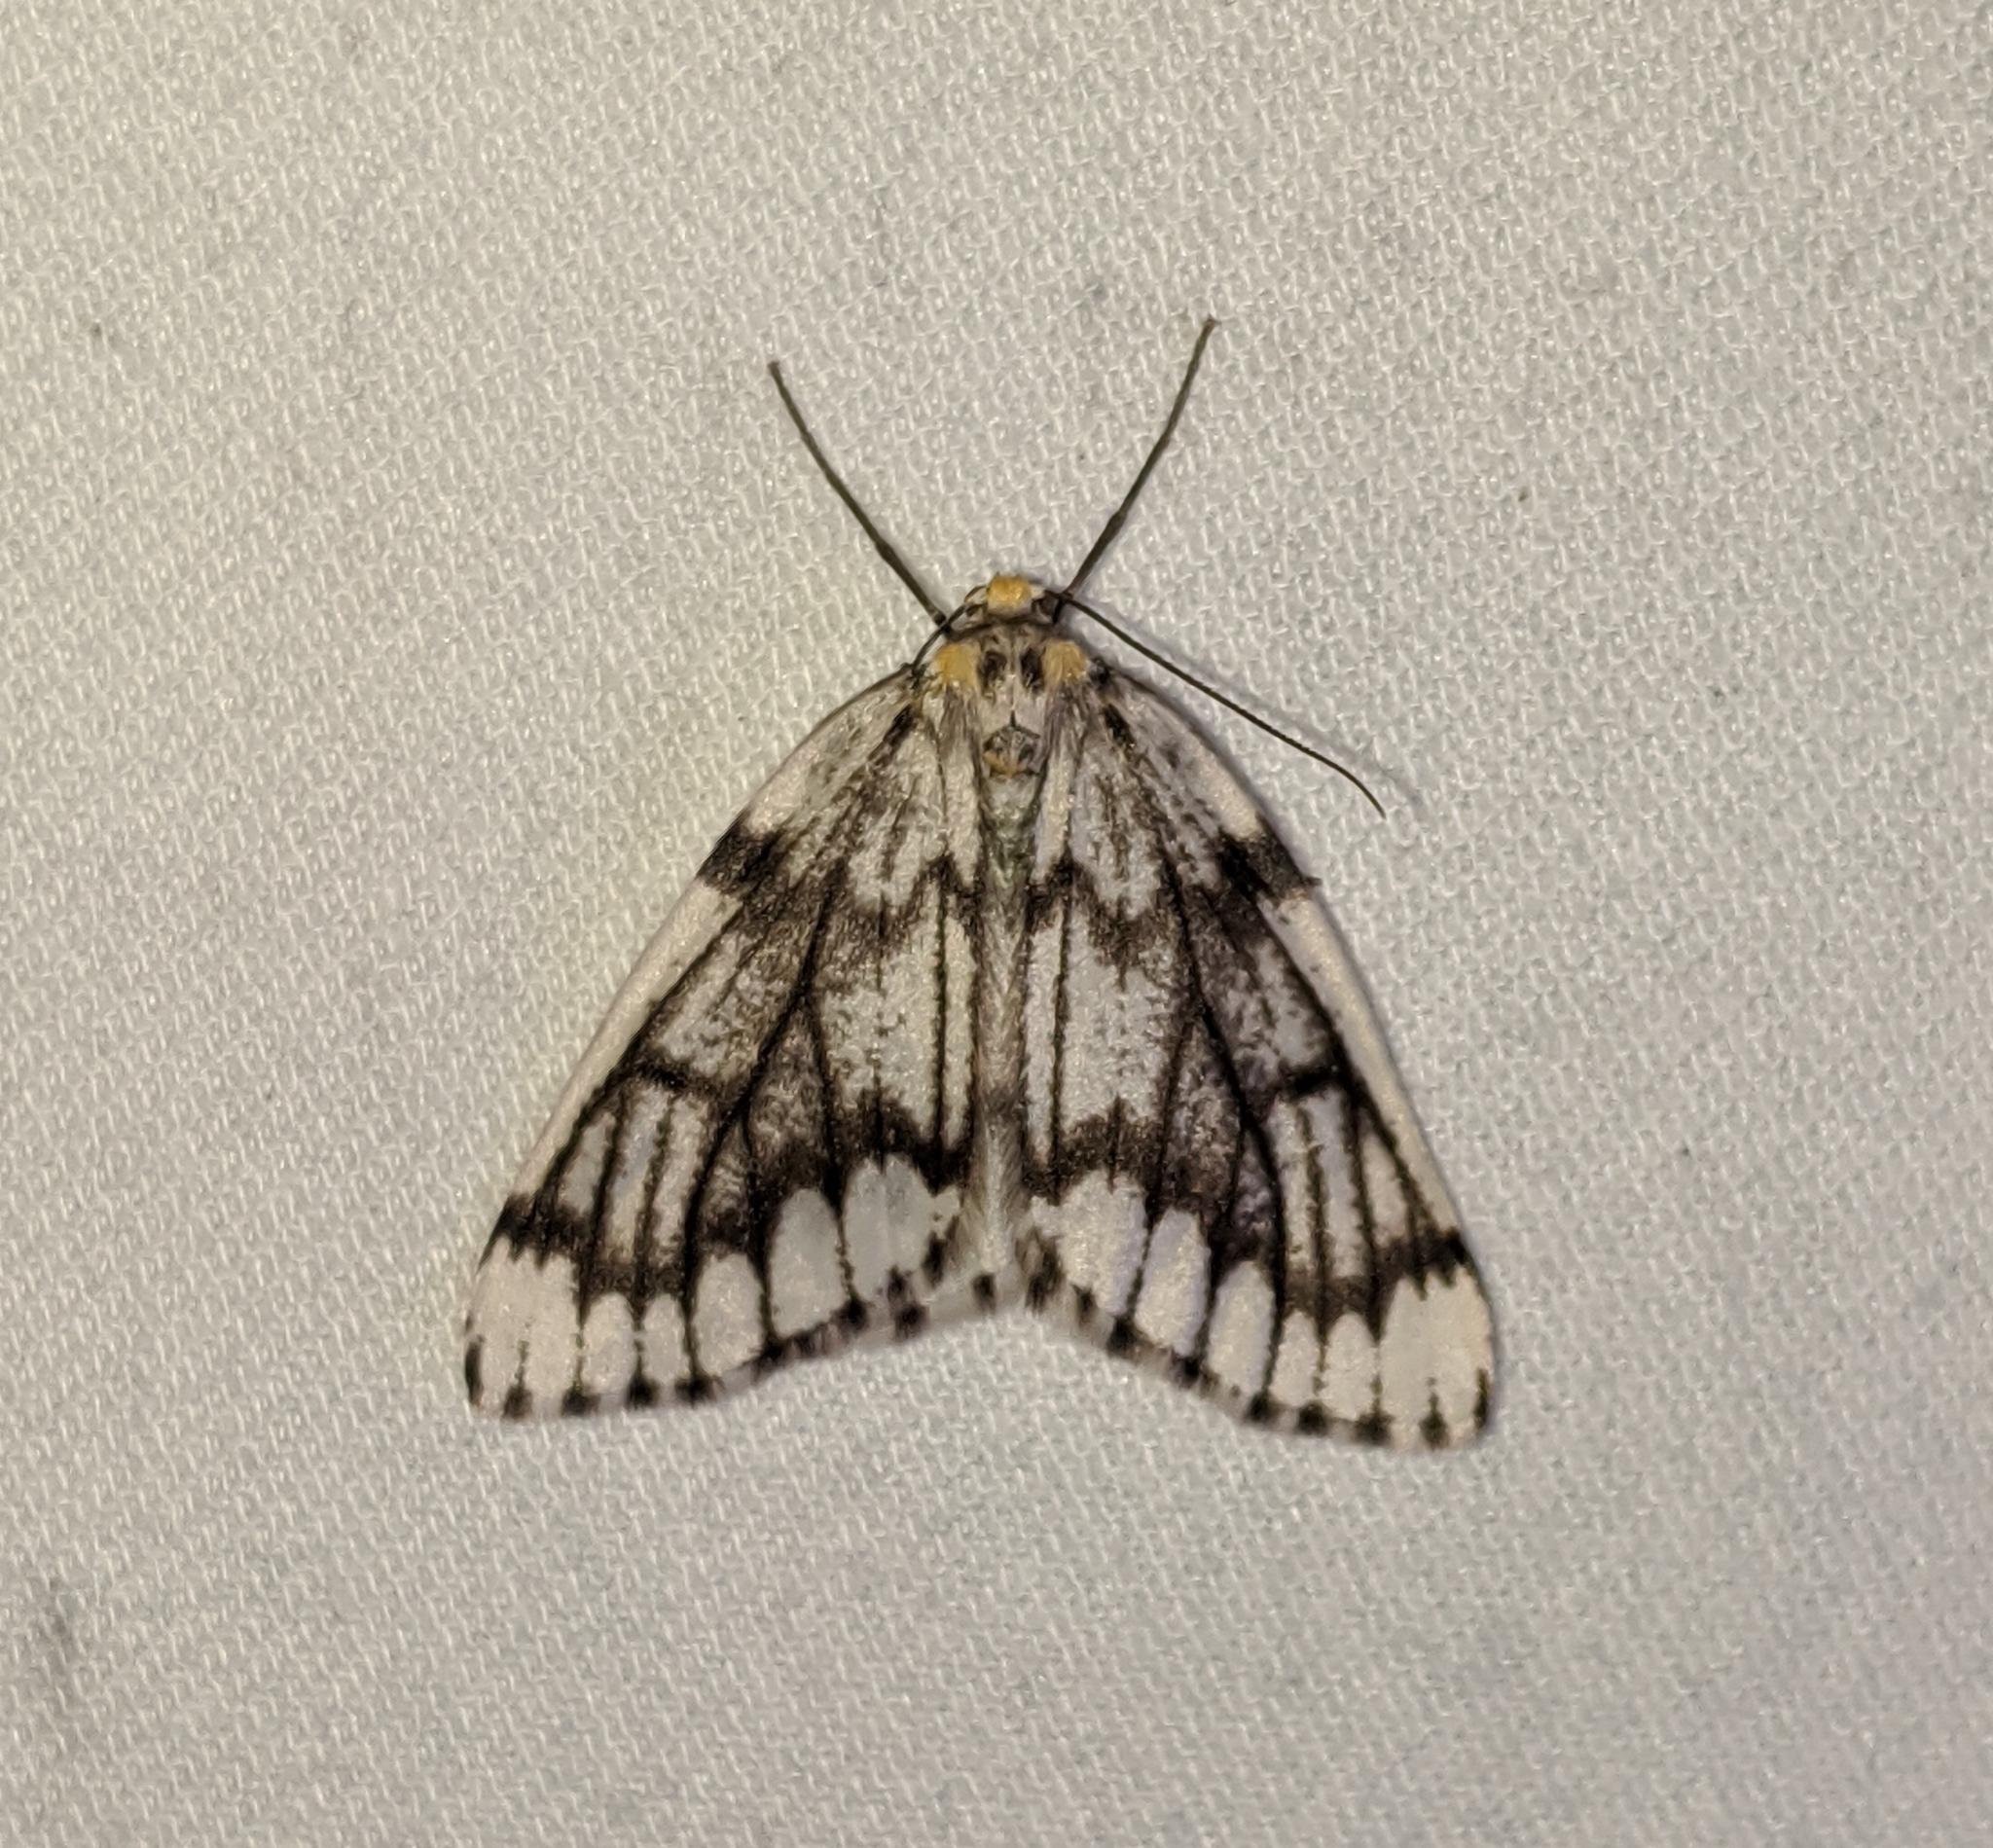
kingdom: Animalia
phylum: Arthropoda
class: Insecta
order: Lepidoptera
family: Geometridae
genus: Nepytia
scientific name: Nepytia phantasmaria
